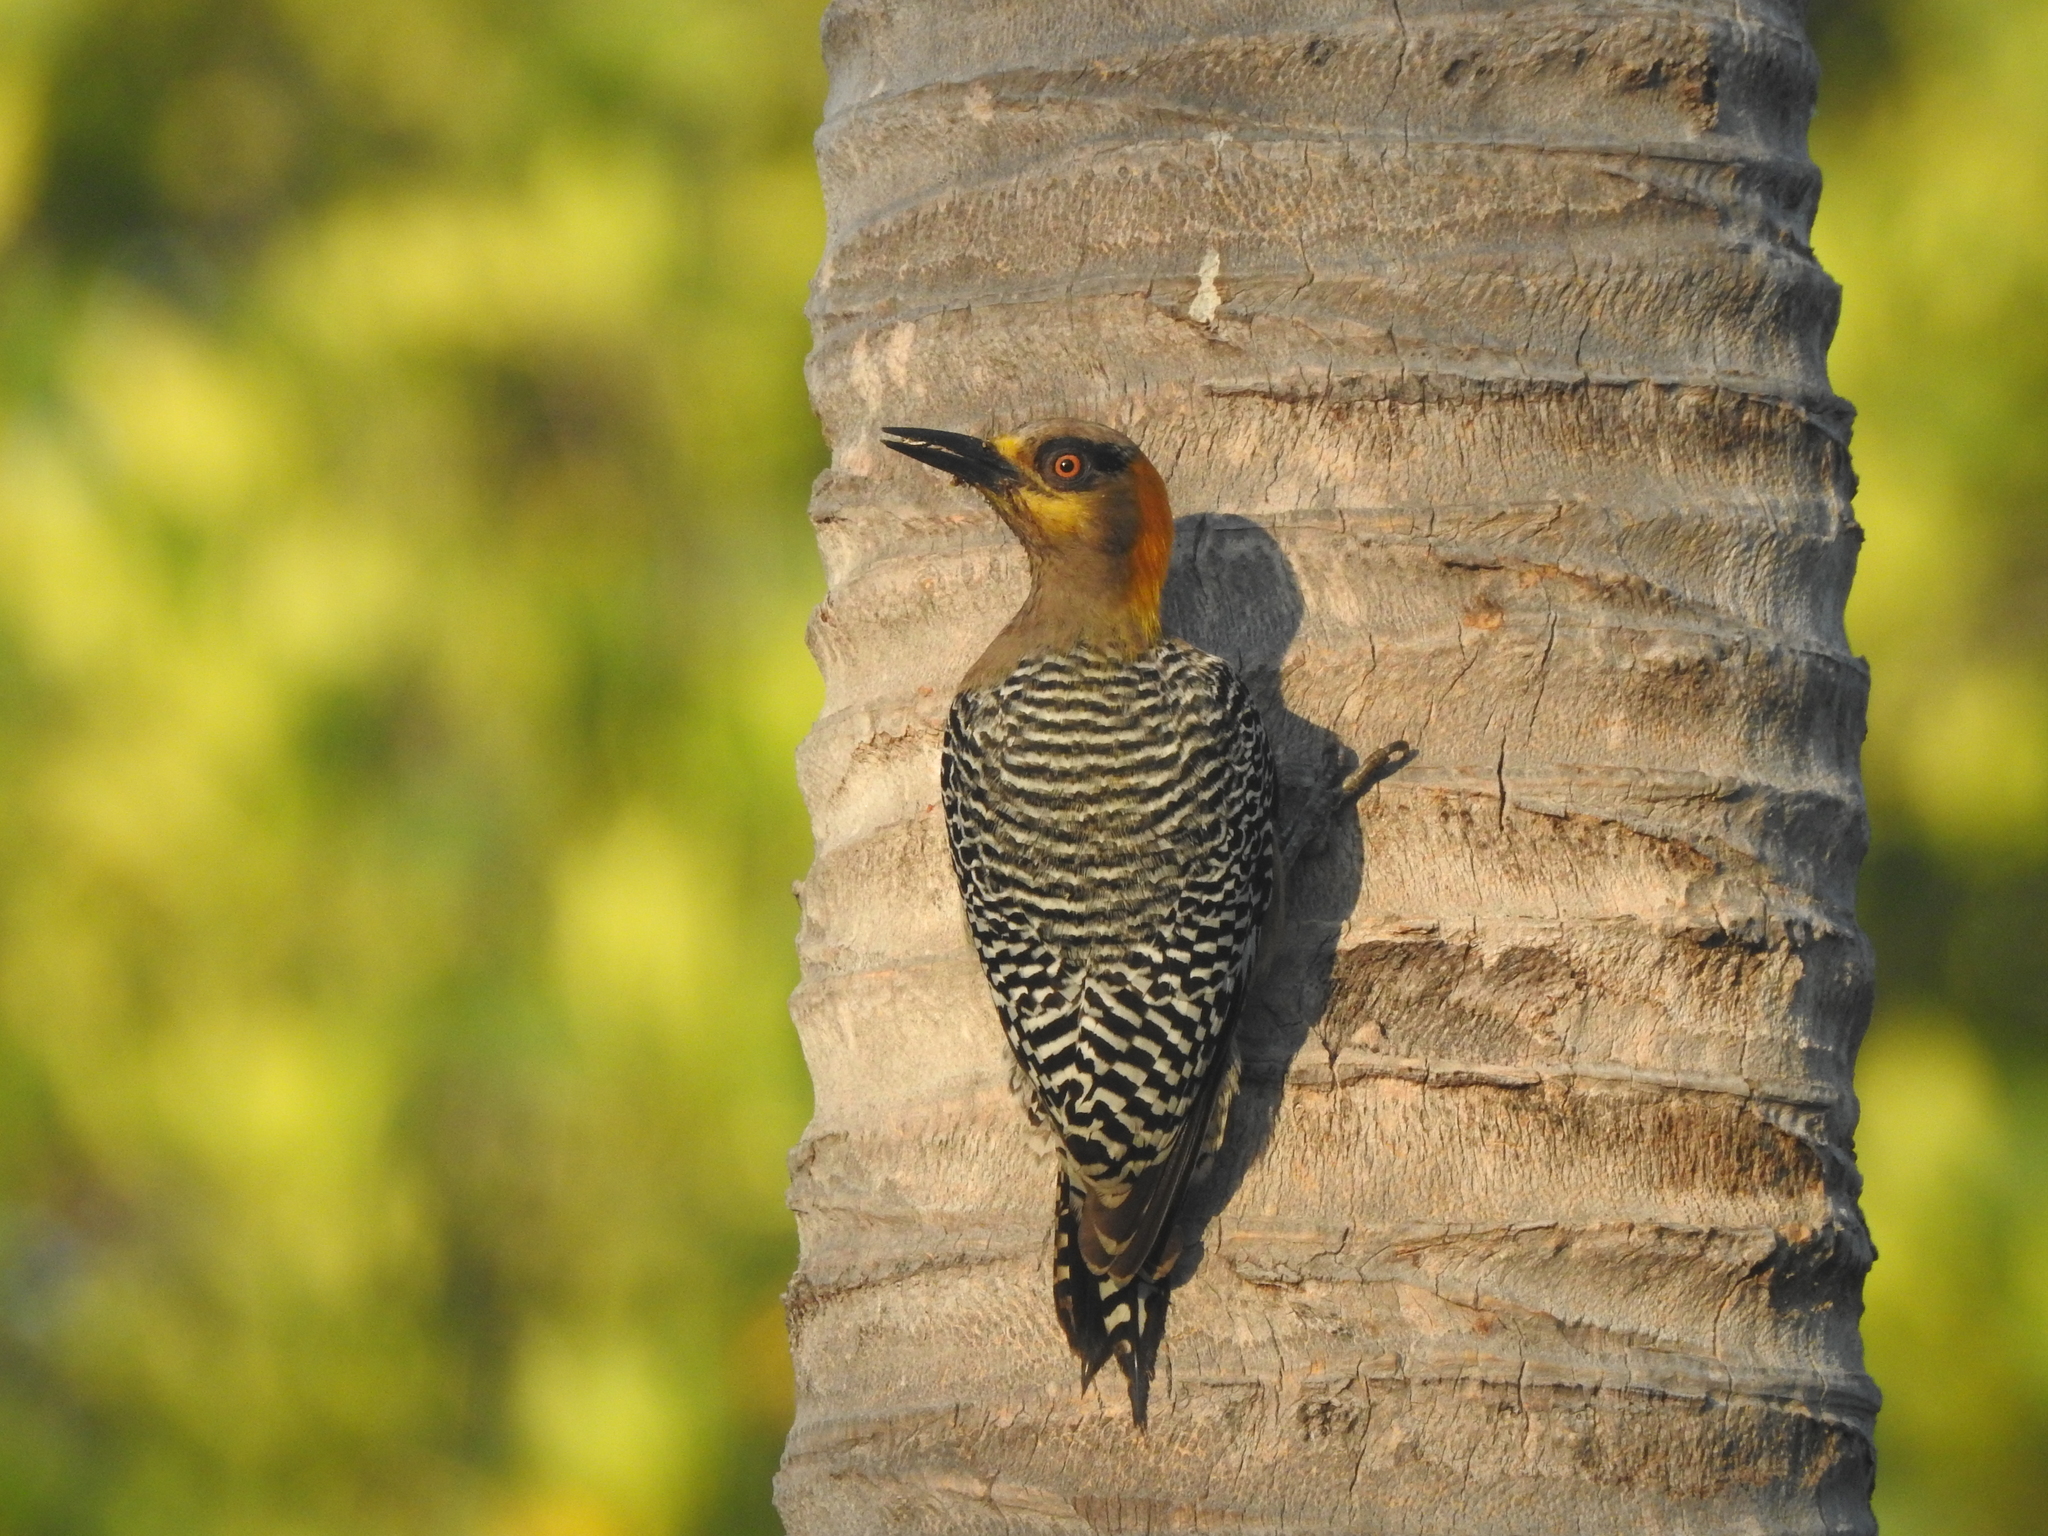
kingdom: Animalia
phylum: Chordata
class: Aves
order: Piciformes
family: Picidae
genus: Melanerpes
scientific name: Melanerpes chrysogenys
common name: Golden-cheeked woodpecker
